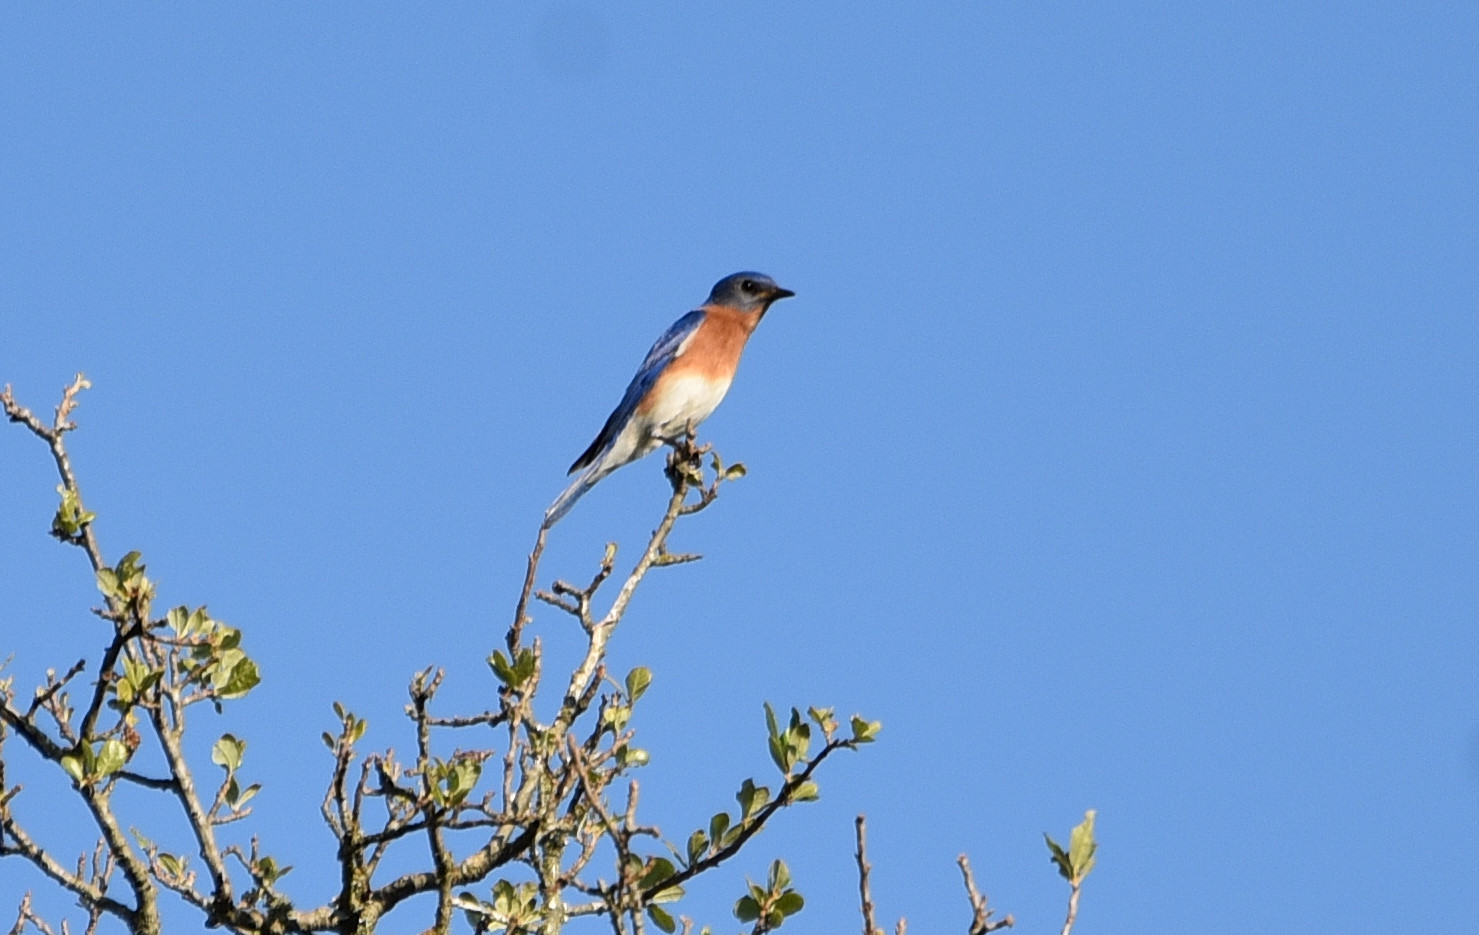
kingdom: Animalia
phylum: Chordata
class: Aves
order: Passeriformes
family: Turdidae
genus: Sialia
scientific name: Sialia sialis
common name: Eastern bluebird
